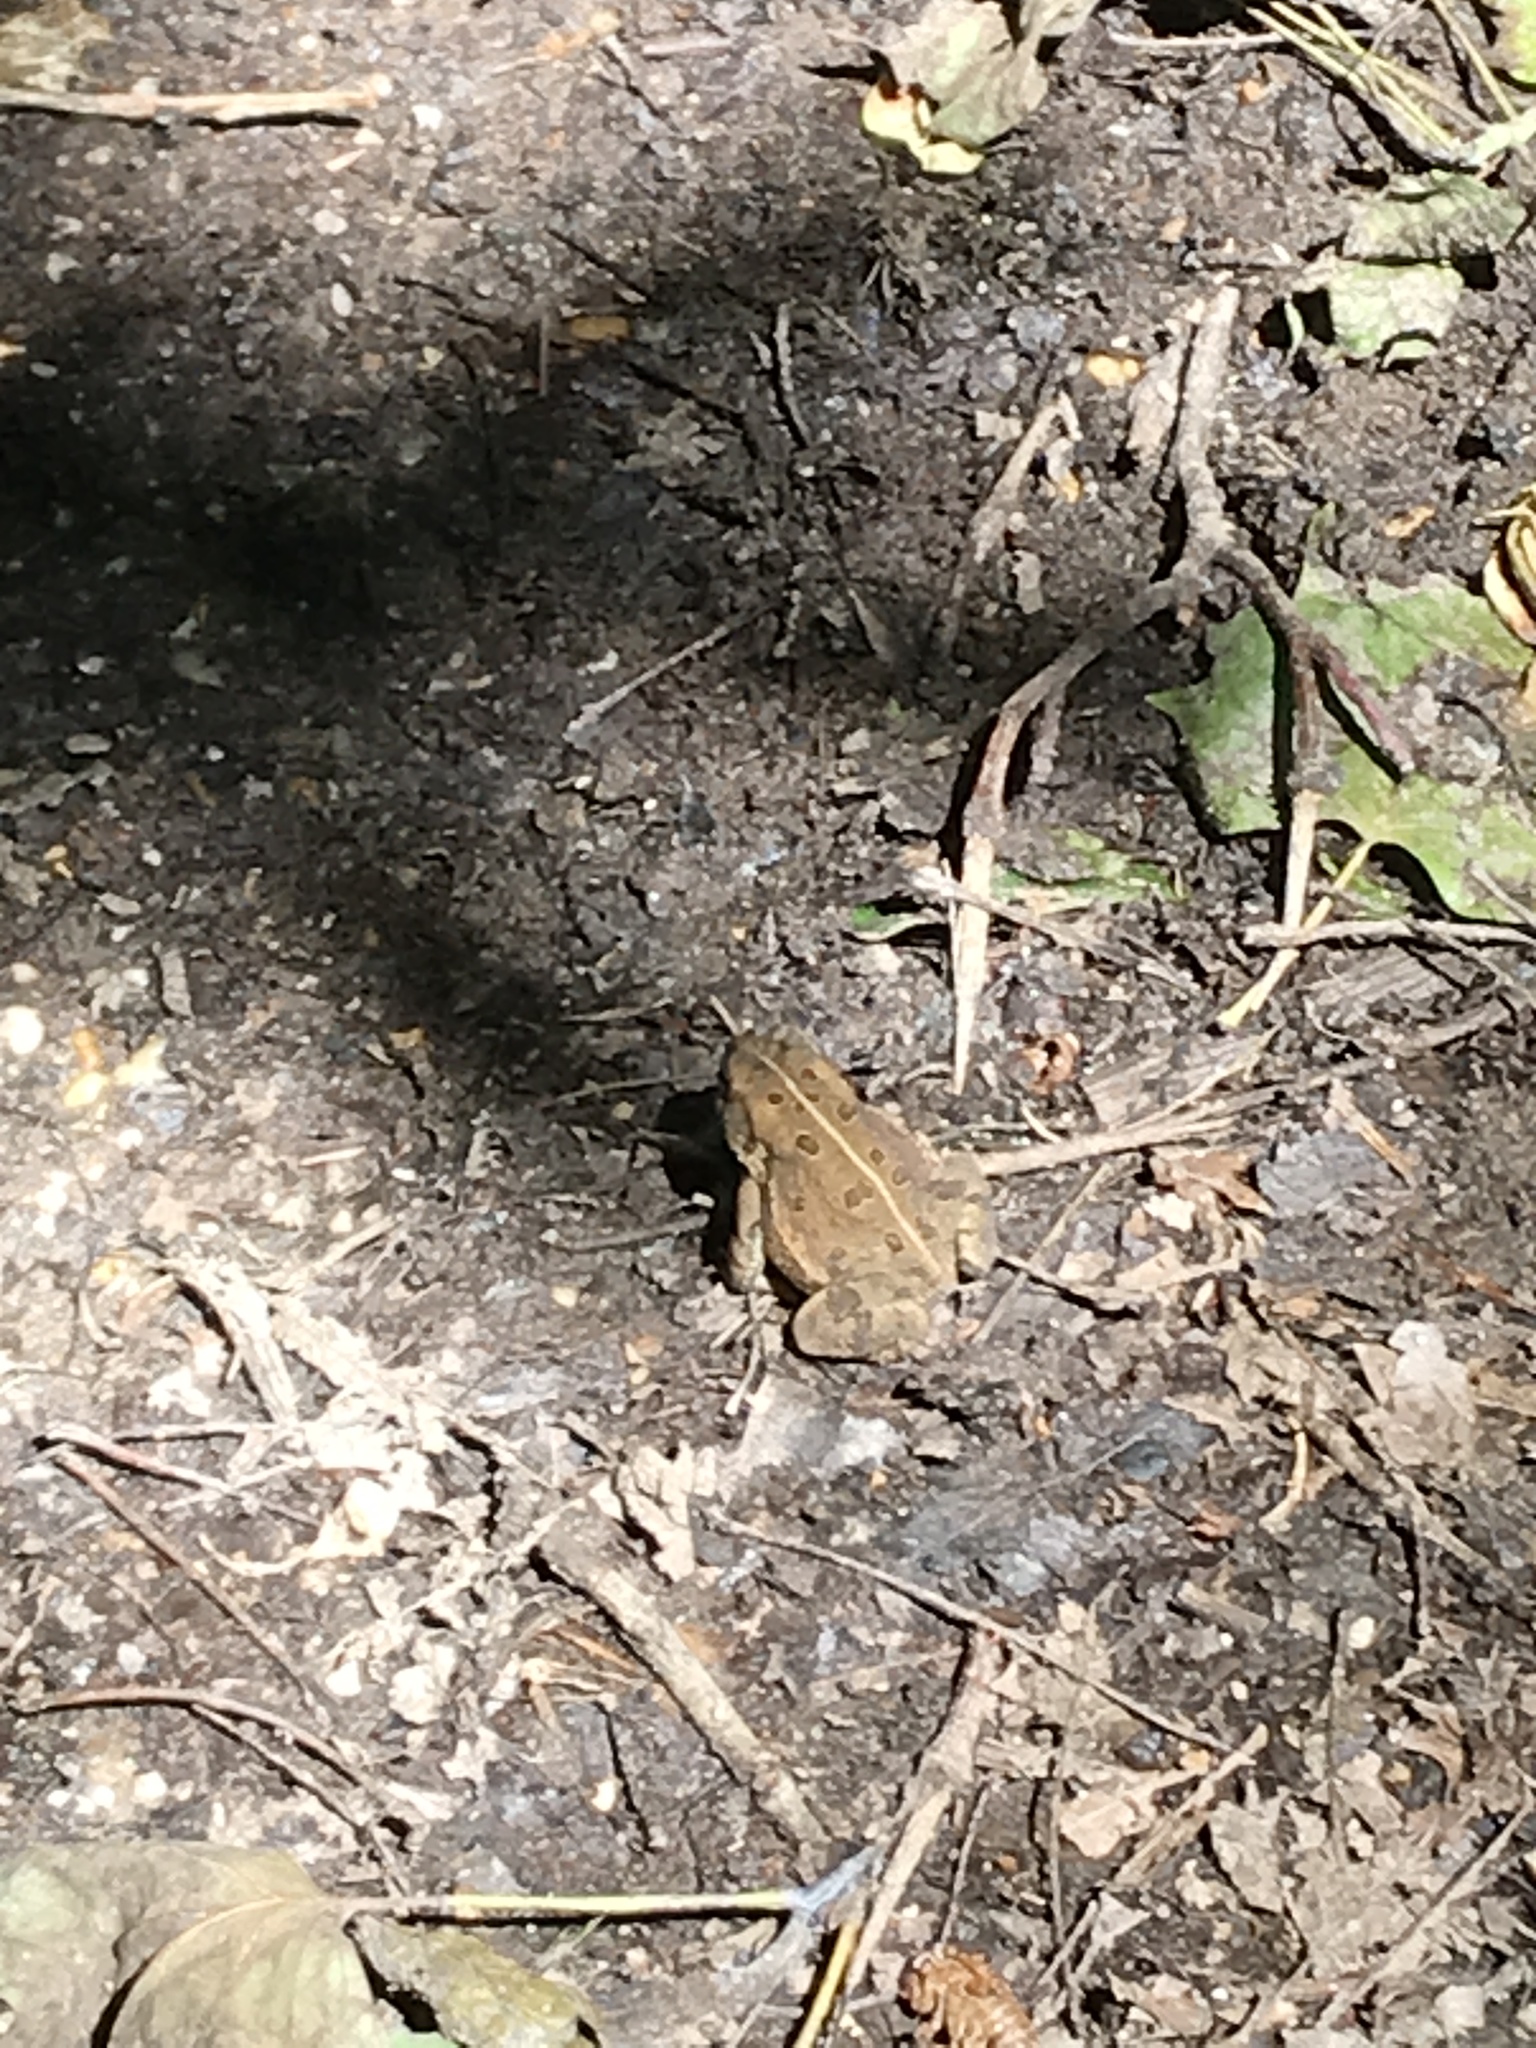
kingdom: Animalia
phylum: Chordata
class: Amphibia
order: Anura
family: Bufonidae
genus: Anaxyrus
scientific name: Anaxyrus americanus
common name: American toad
